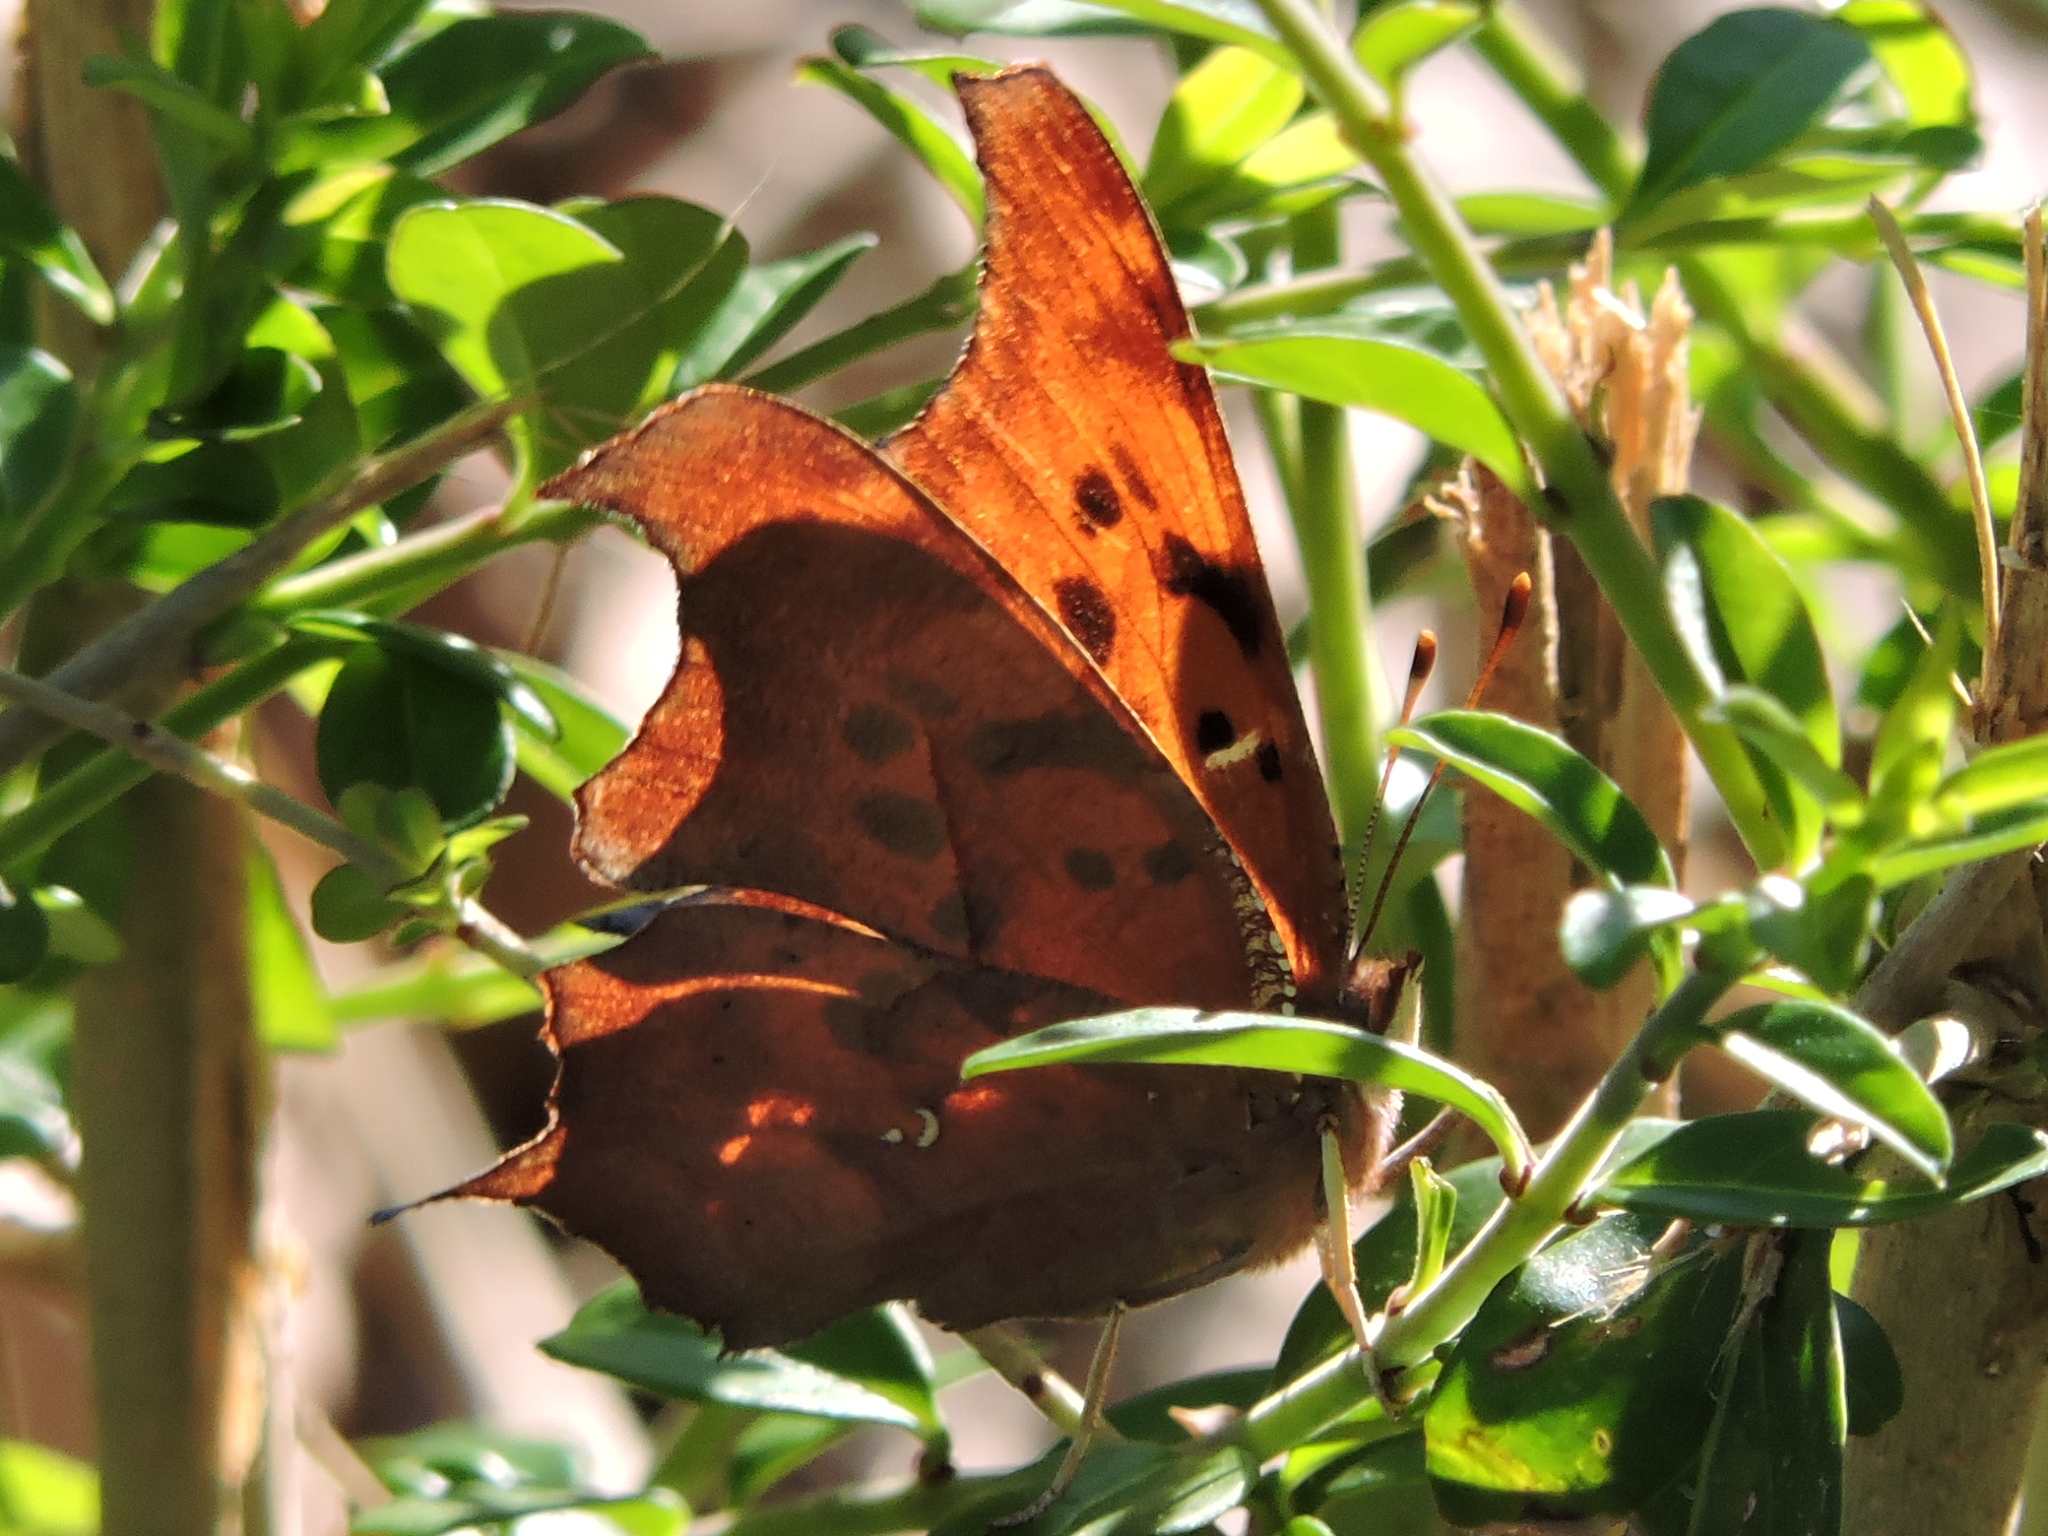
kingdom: Animalia
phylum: Arthropoda
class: Insecta
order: Lepidoptera
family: Nymphalidae
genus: Polygonia
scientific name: Polygonia interrogationis
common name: Question mark
